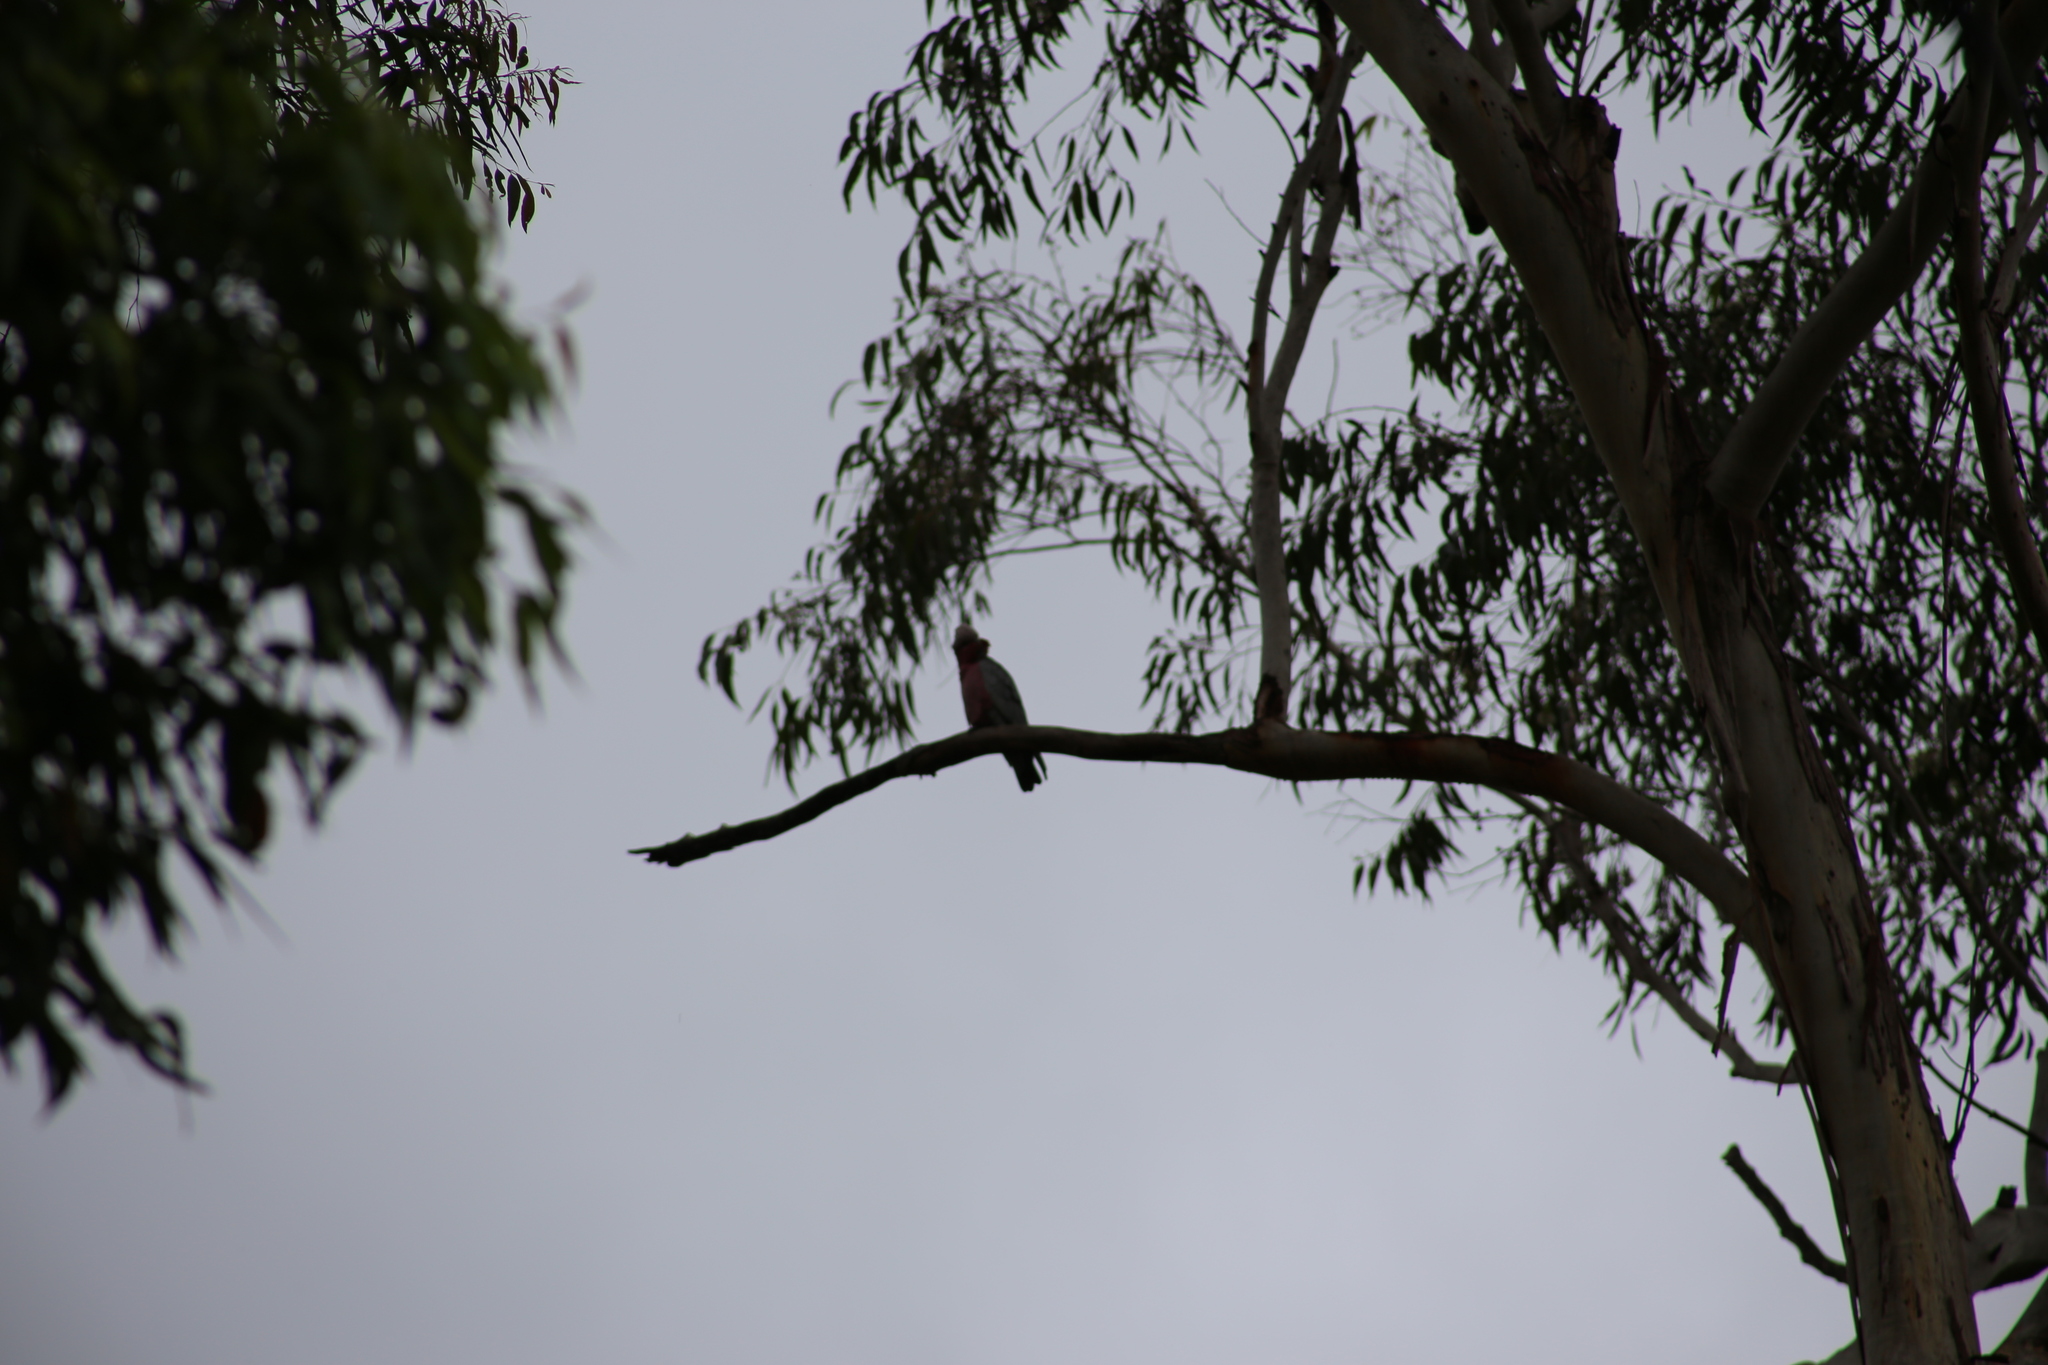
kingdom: Animalia
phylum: Chordata
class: Aves
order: Psittaciformes
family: Psittacidae
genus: Eolophus
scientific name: Eolophus roseicapilla
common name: Galah
